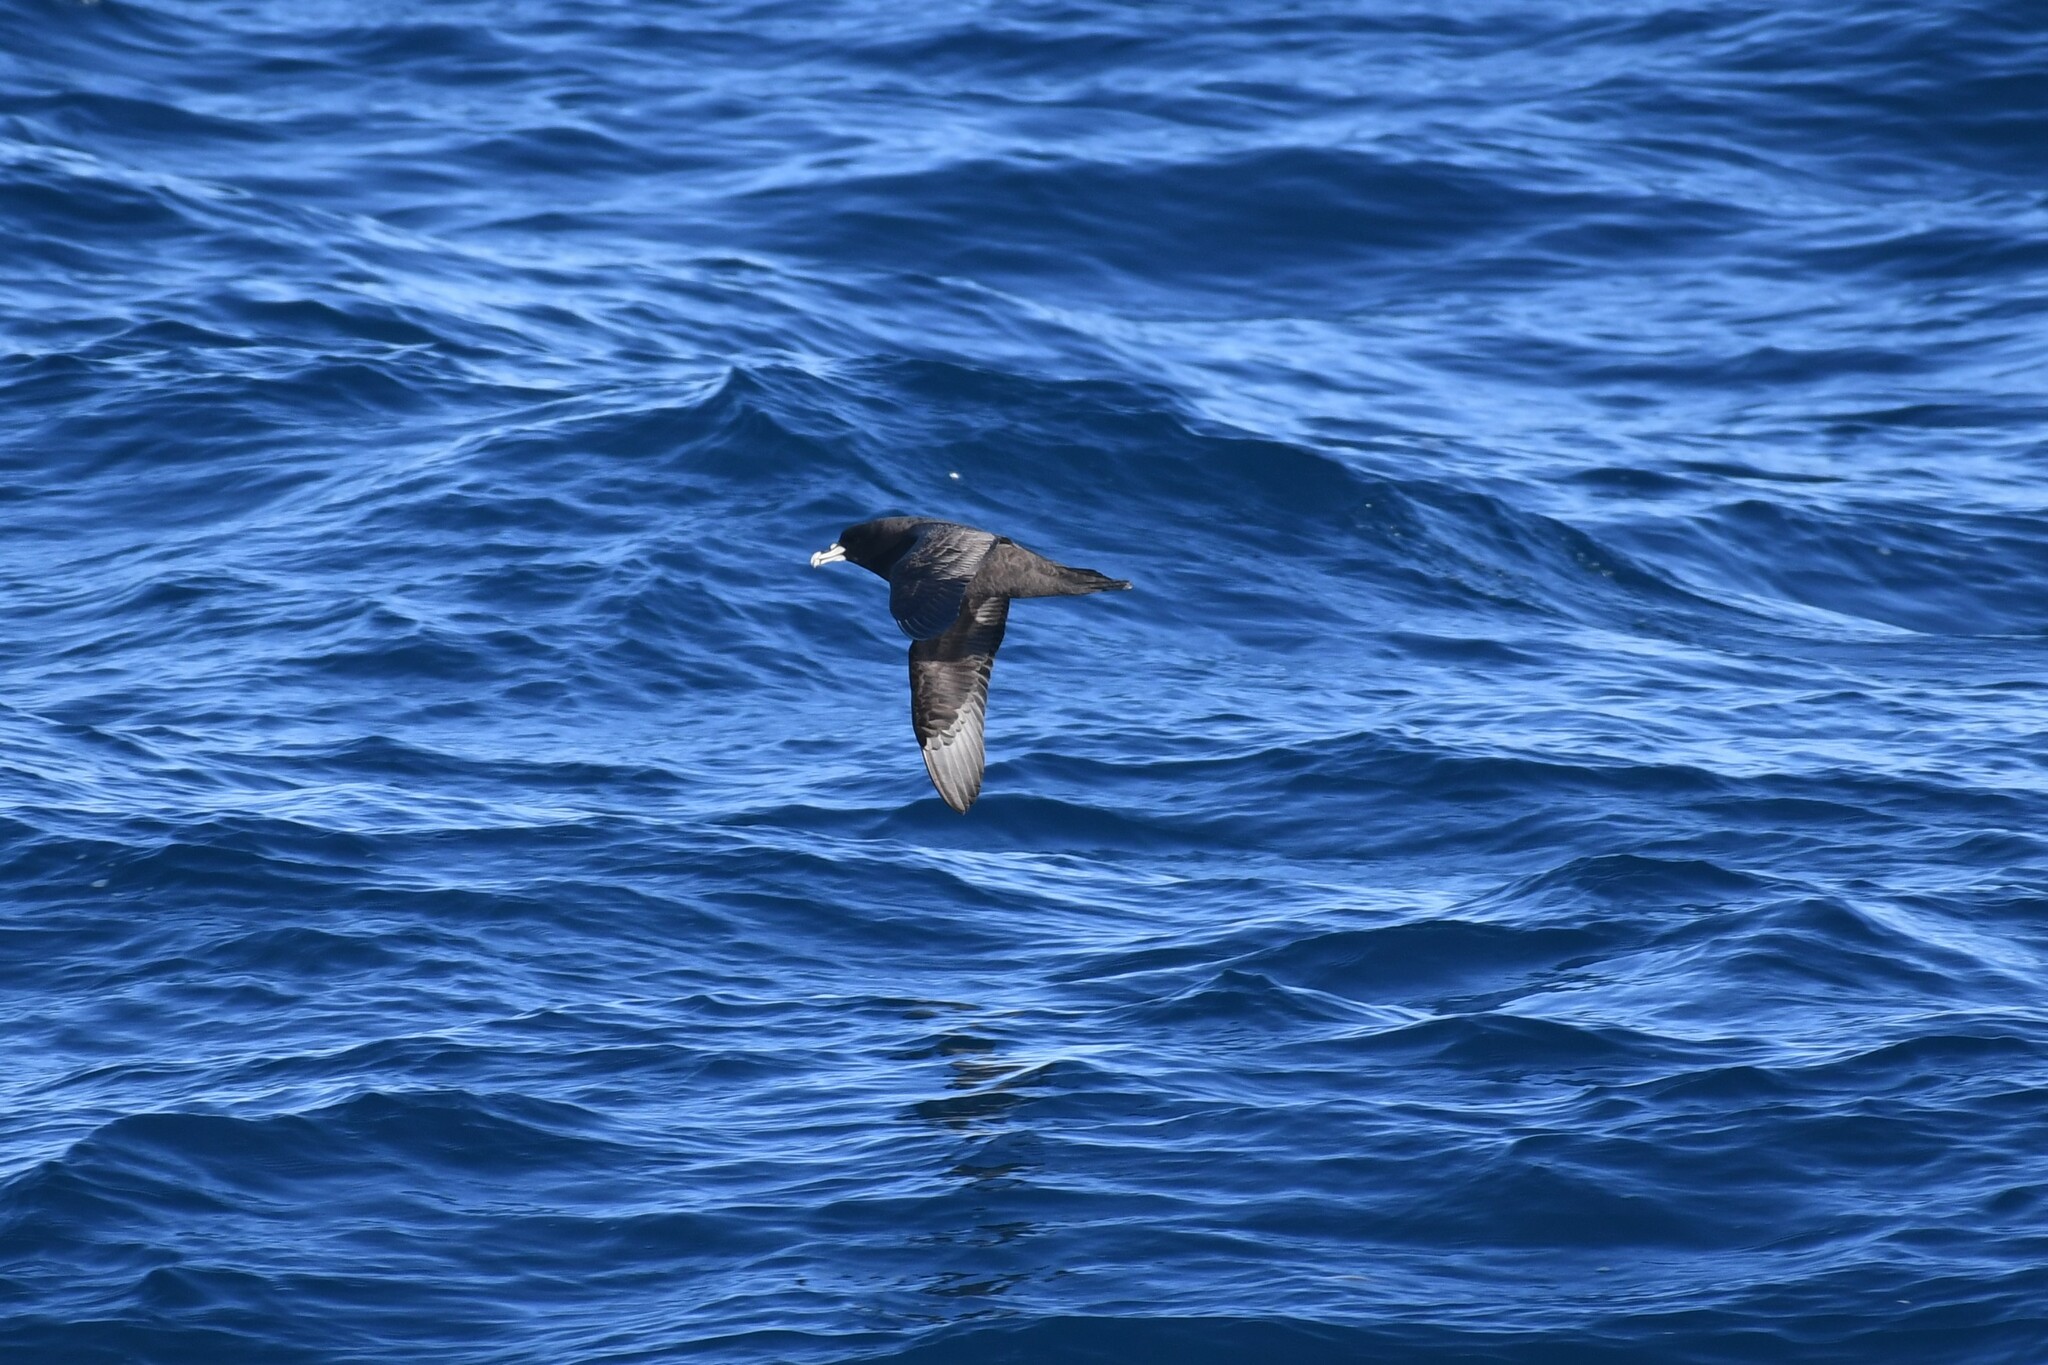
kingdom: Animalia
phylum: Chordata
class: Aves
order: Procellariiformes
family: Procellariidae
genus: Procellaria
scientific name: Procellaria aequinoctialis
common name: White-chinned petrel
